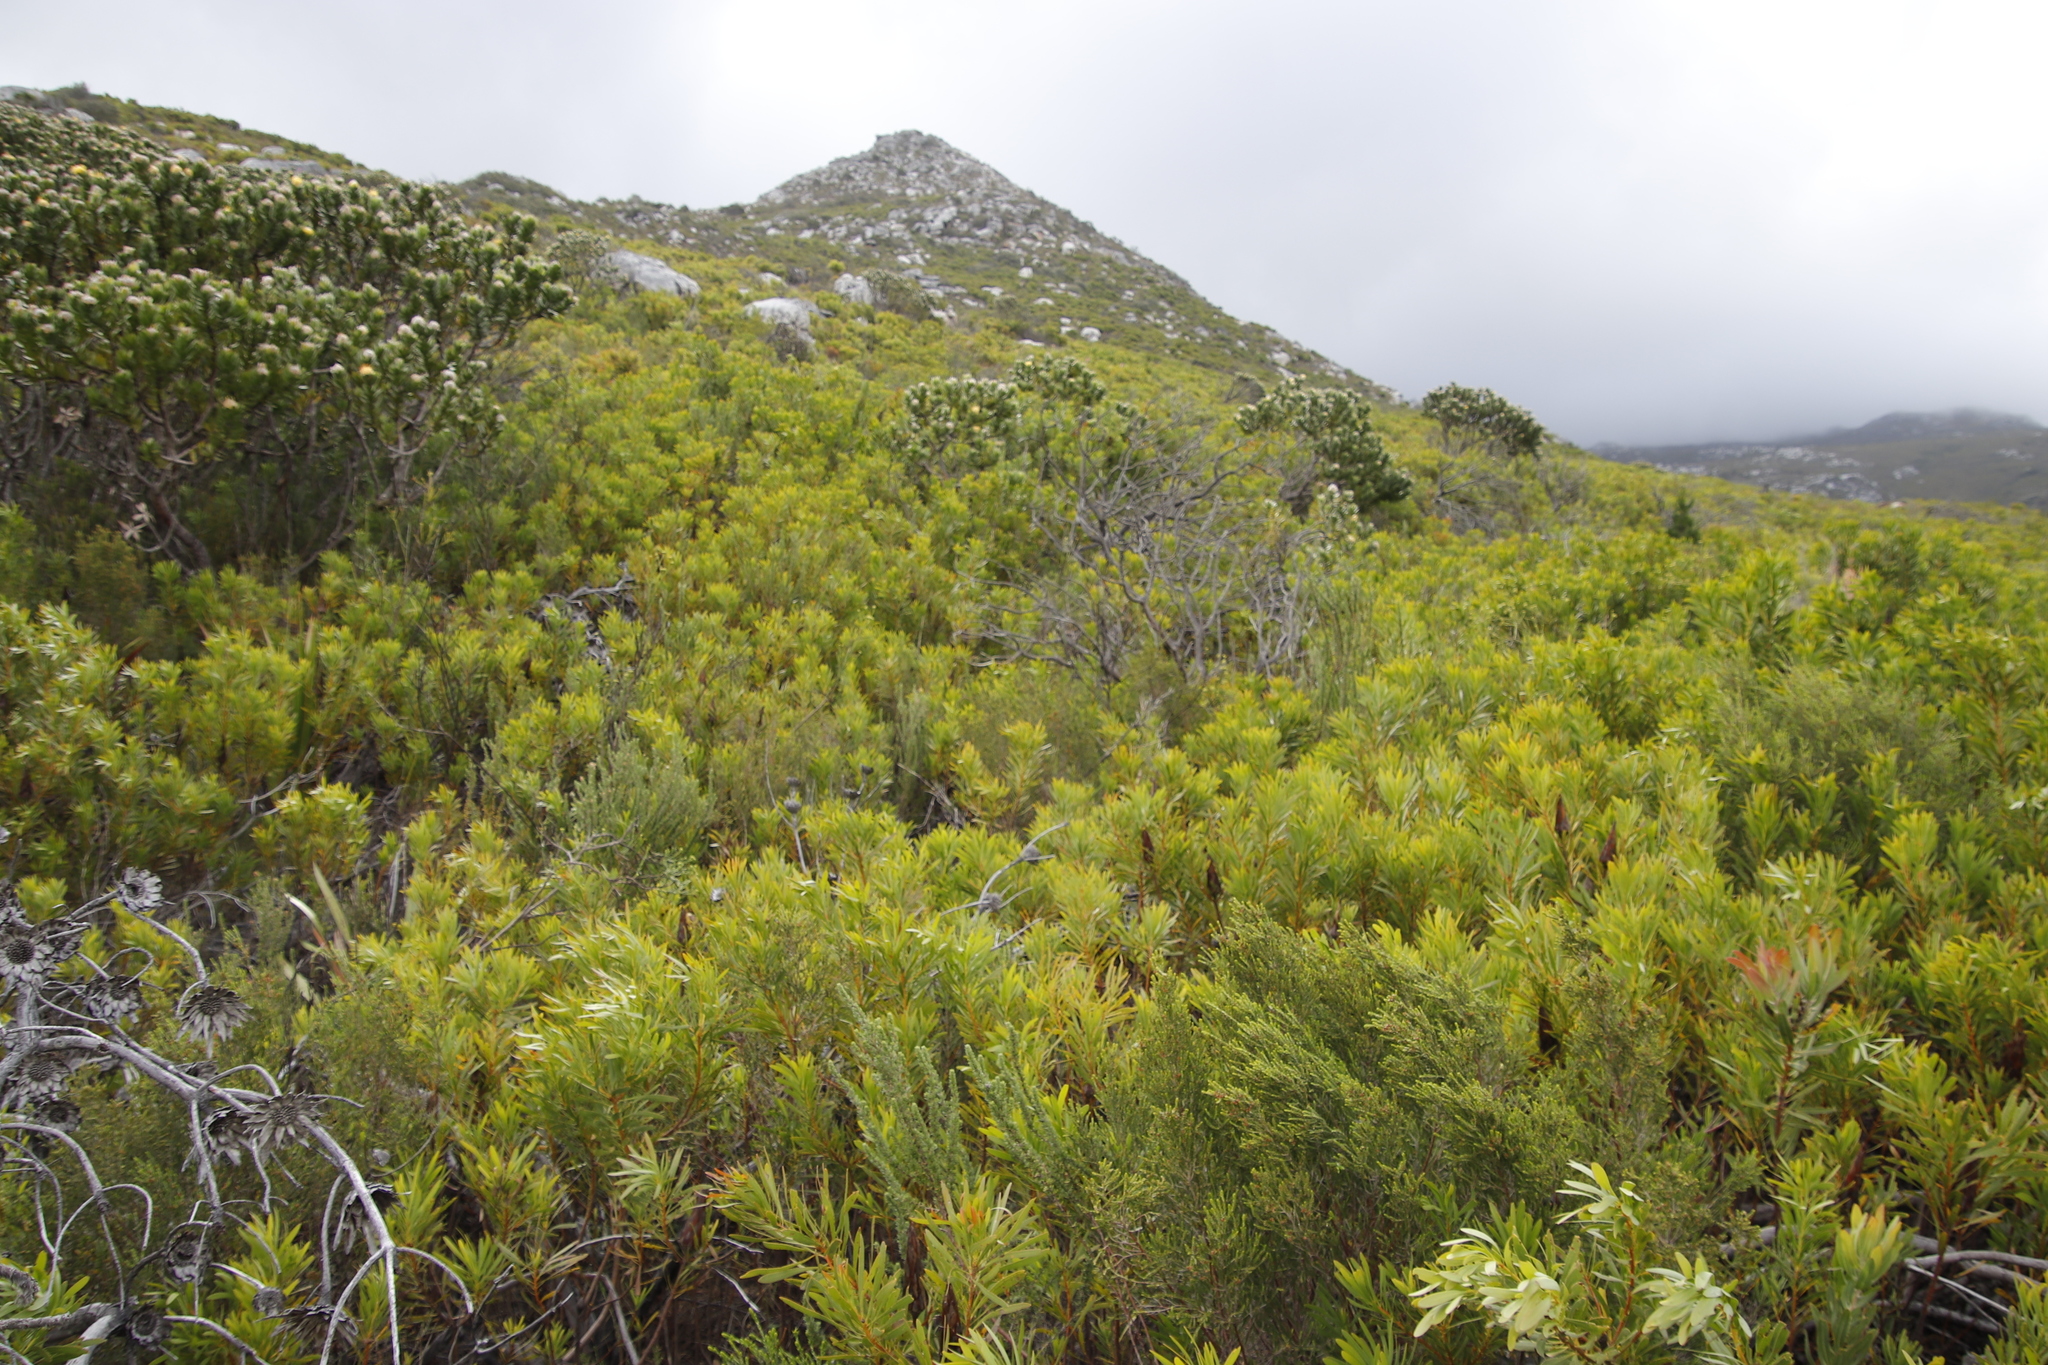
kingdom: Plantae
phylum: Tracheophyta
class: Magnoliopsida
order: Proteales
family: Proteaceae
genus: Protea
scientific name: Protea repens
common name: Sugarbush
